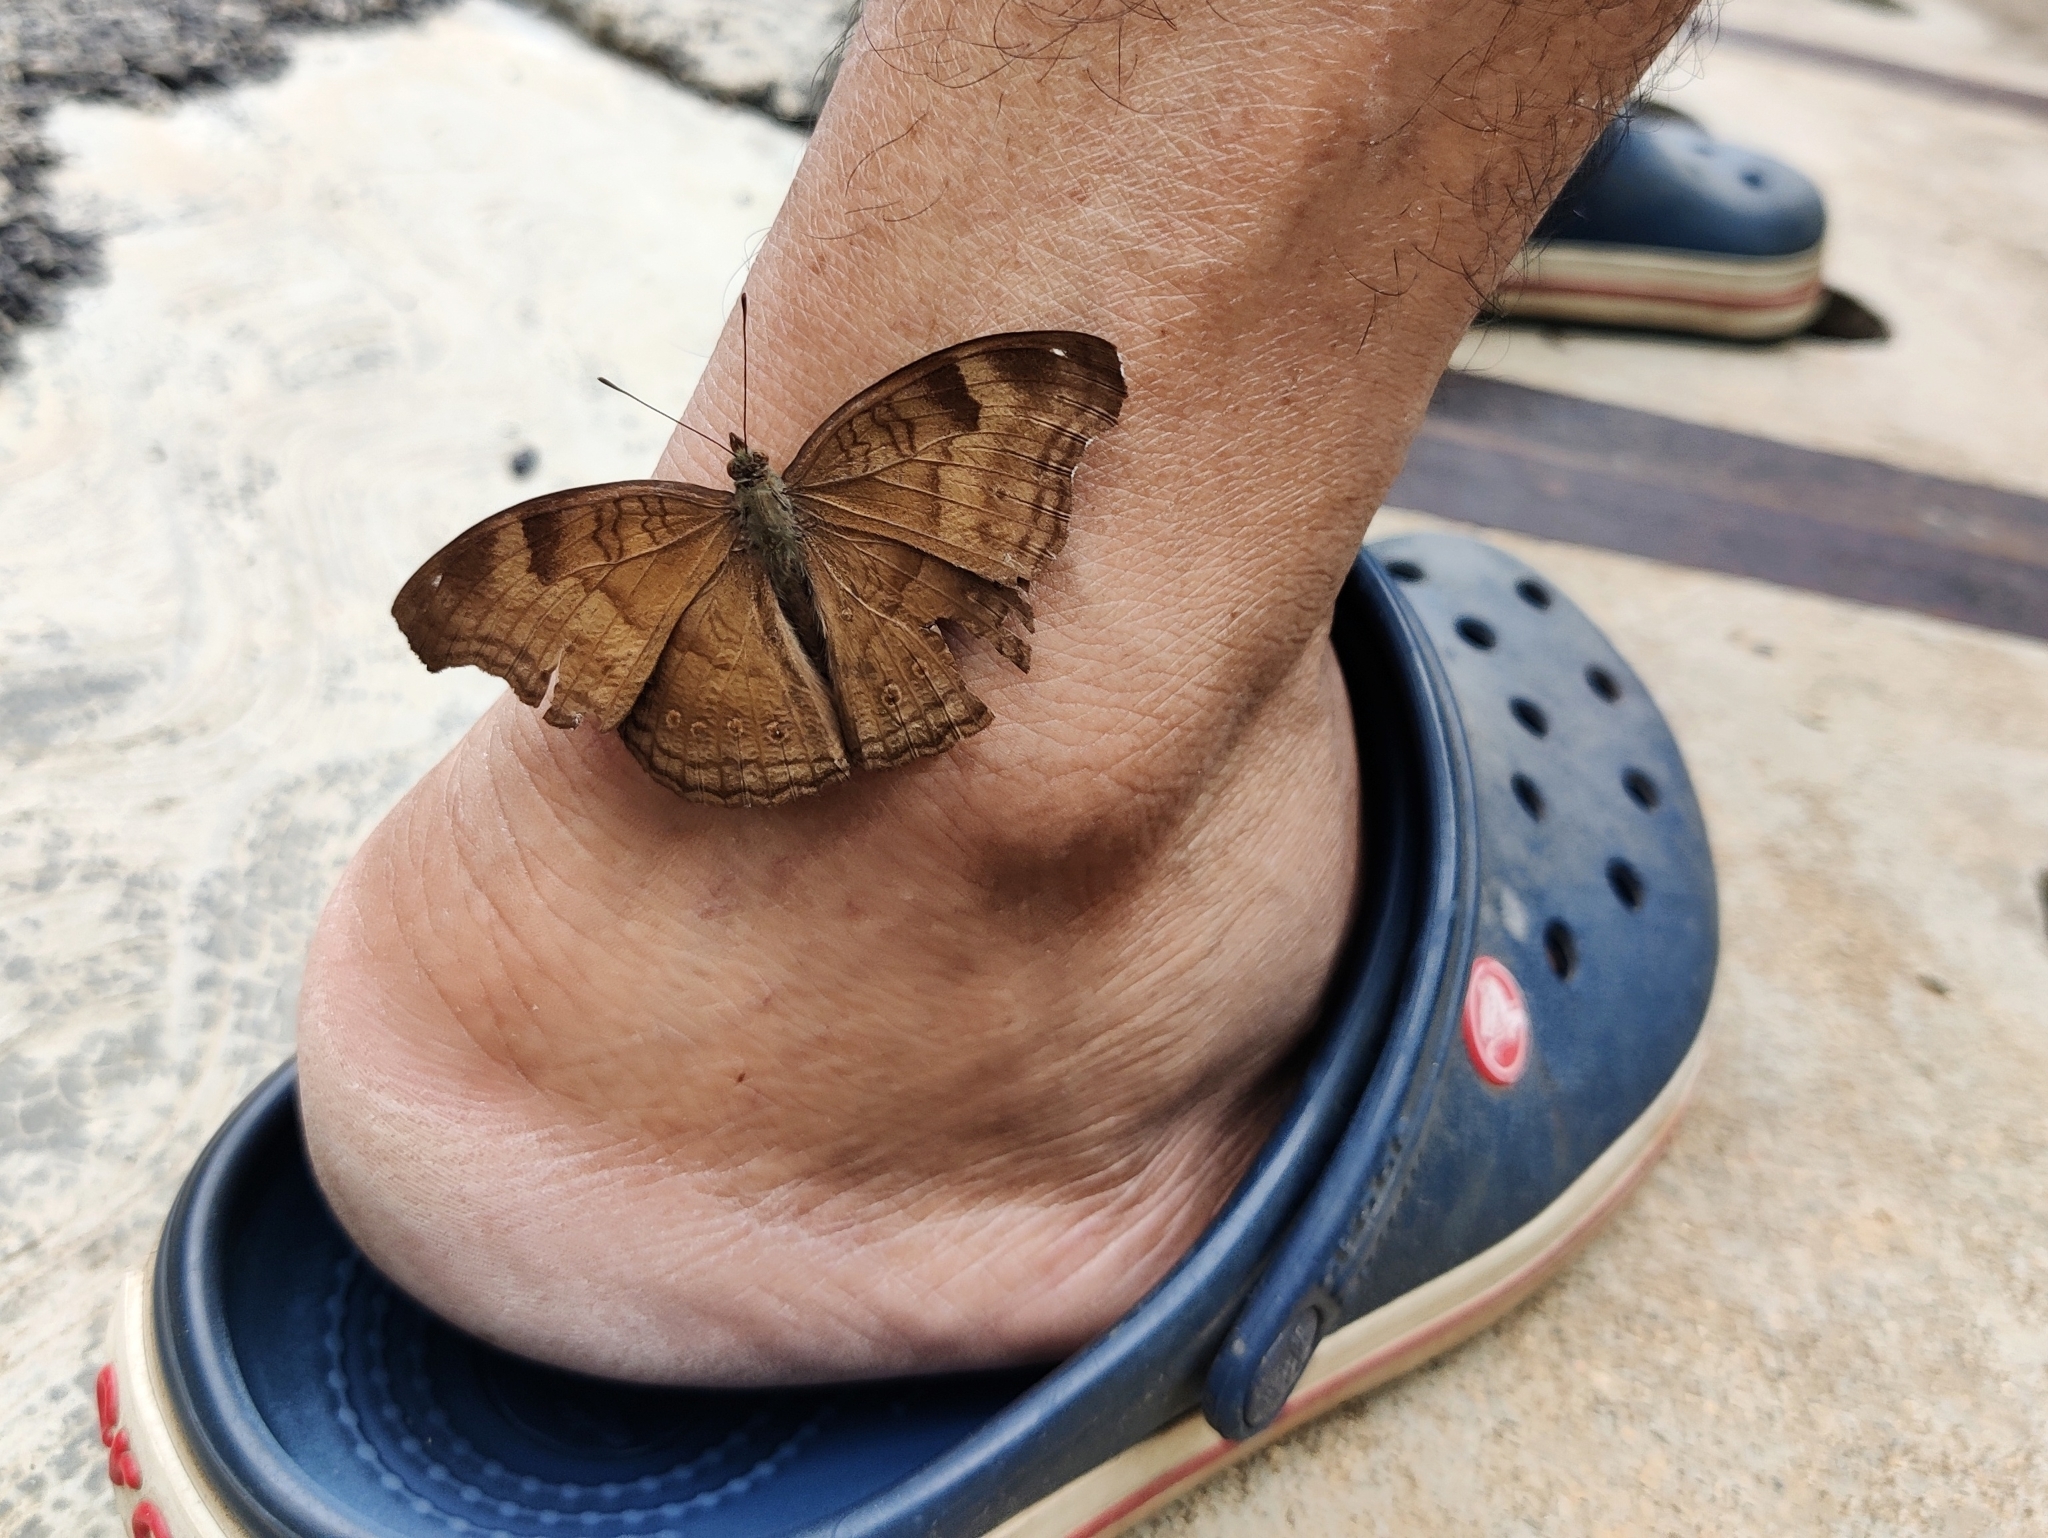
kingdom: Animalia
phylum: Arthropoda
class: Insecta
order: Lepidoptera
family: Nymphalidae
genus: Junonia
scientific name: Junonia iphita
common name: Chocolate pansy
